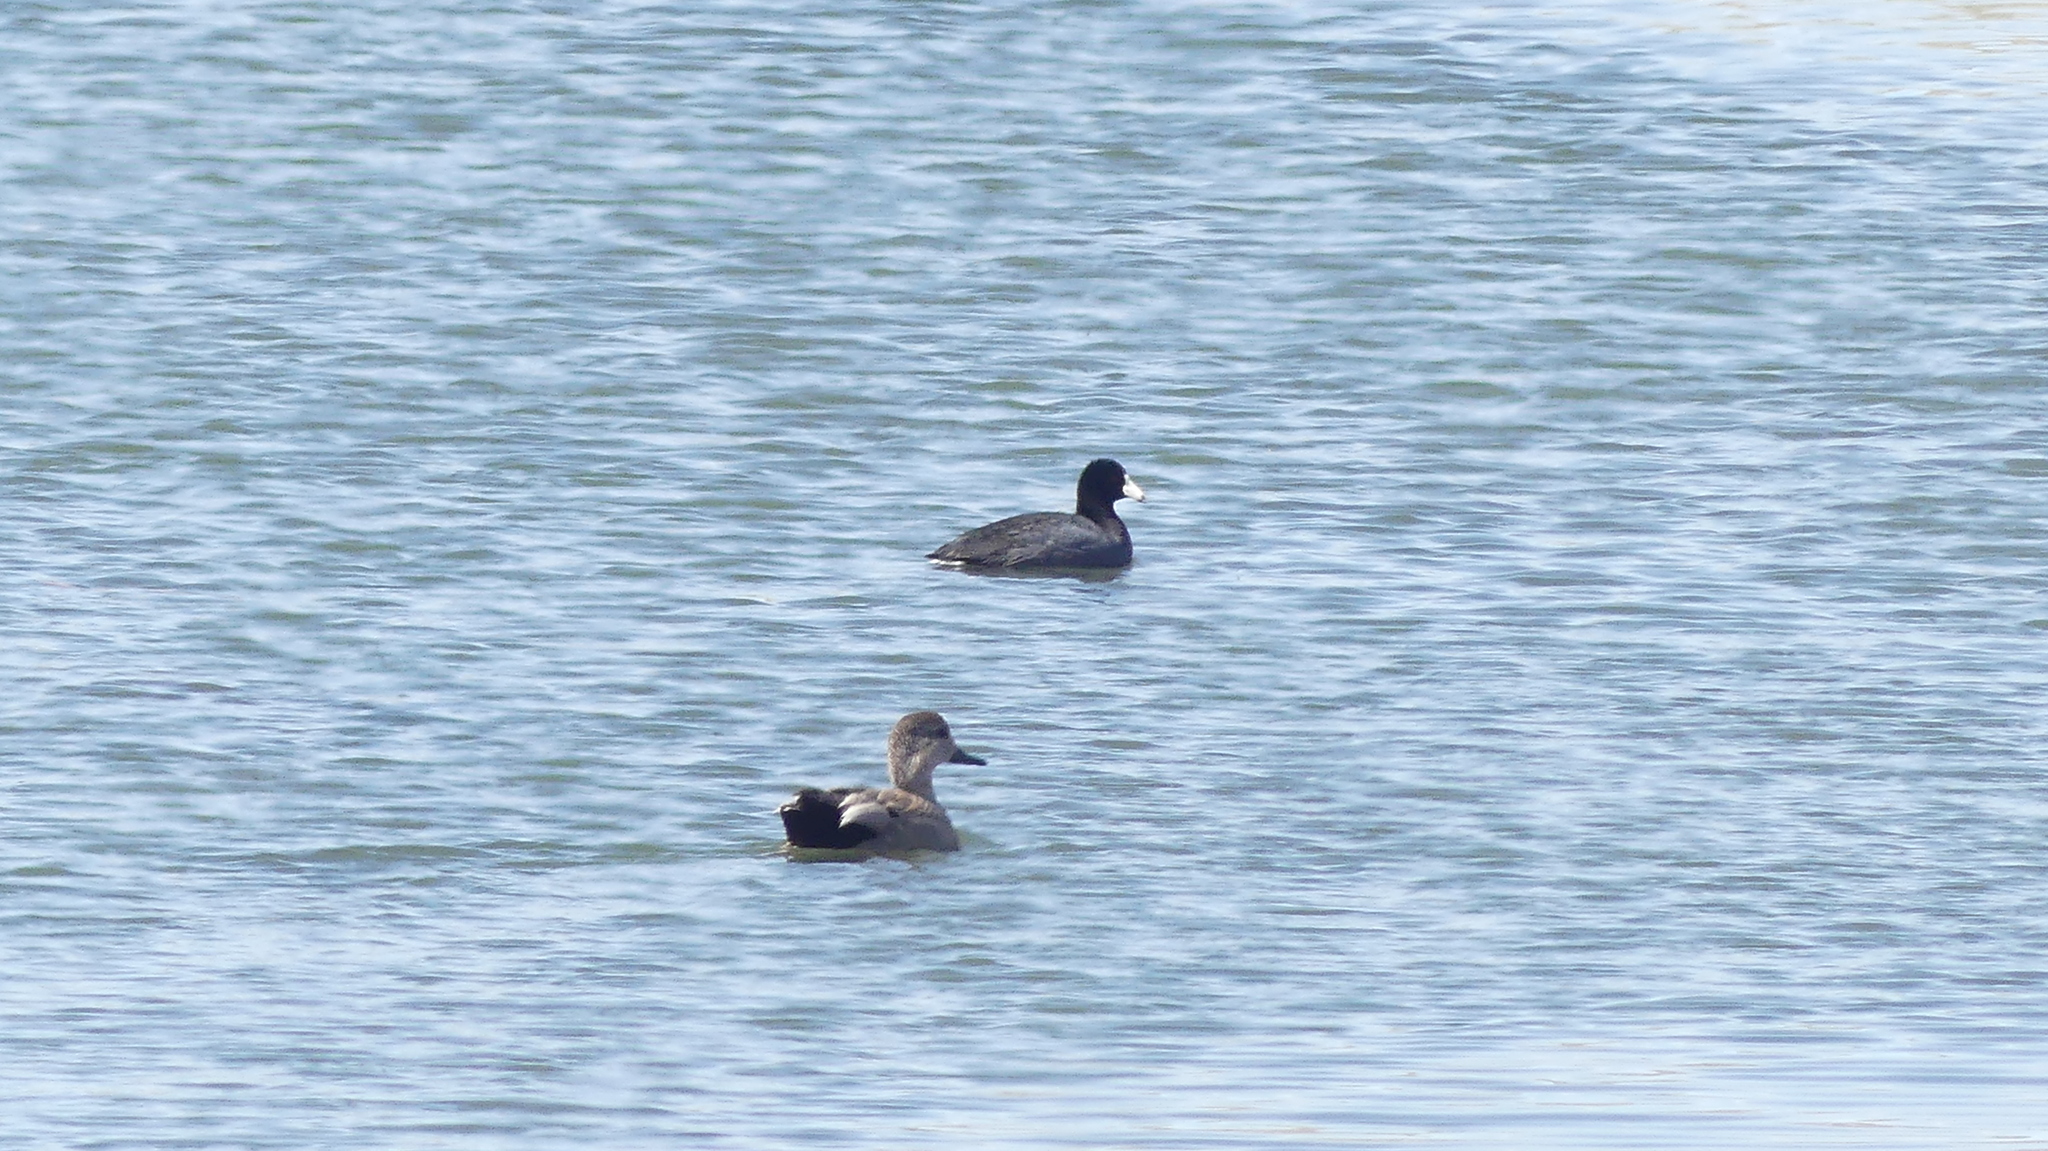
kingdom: Animalia
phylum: Chordata
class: Aves
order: Gruiformes
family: Rallidae
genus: Fulica
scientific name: Fulica americana
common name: American coot
